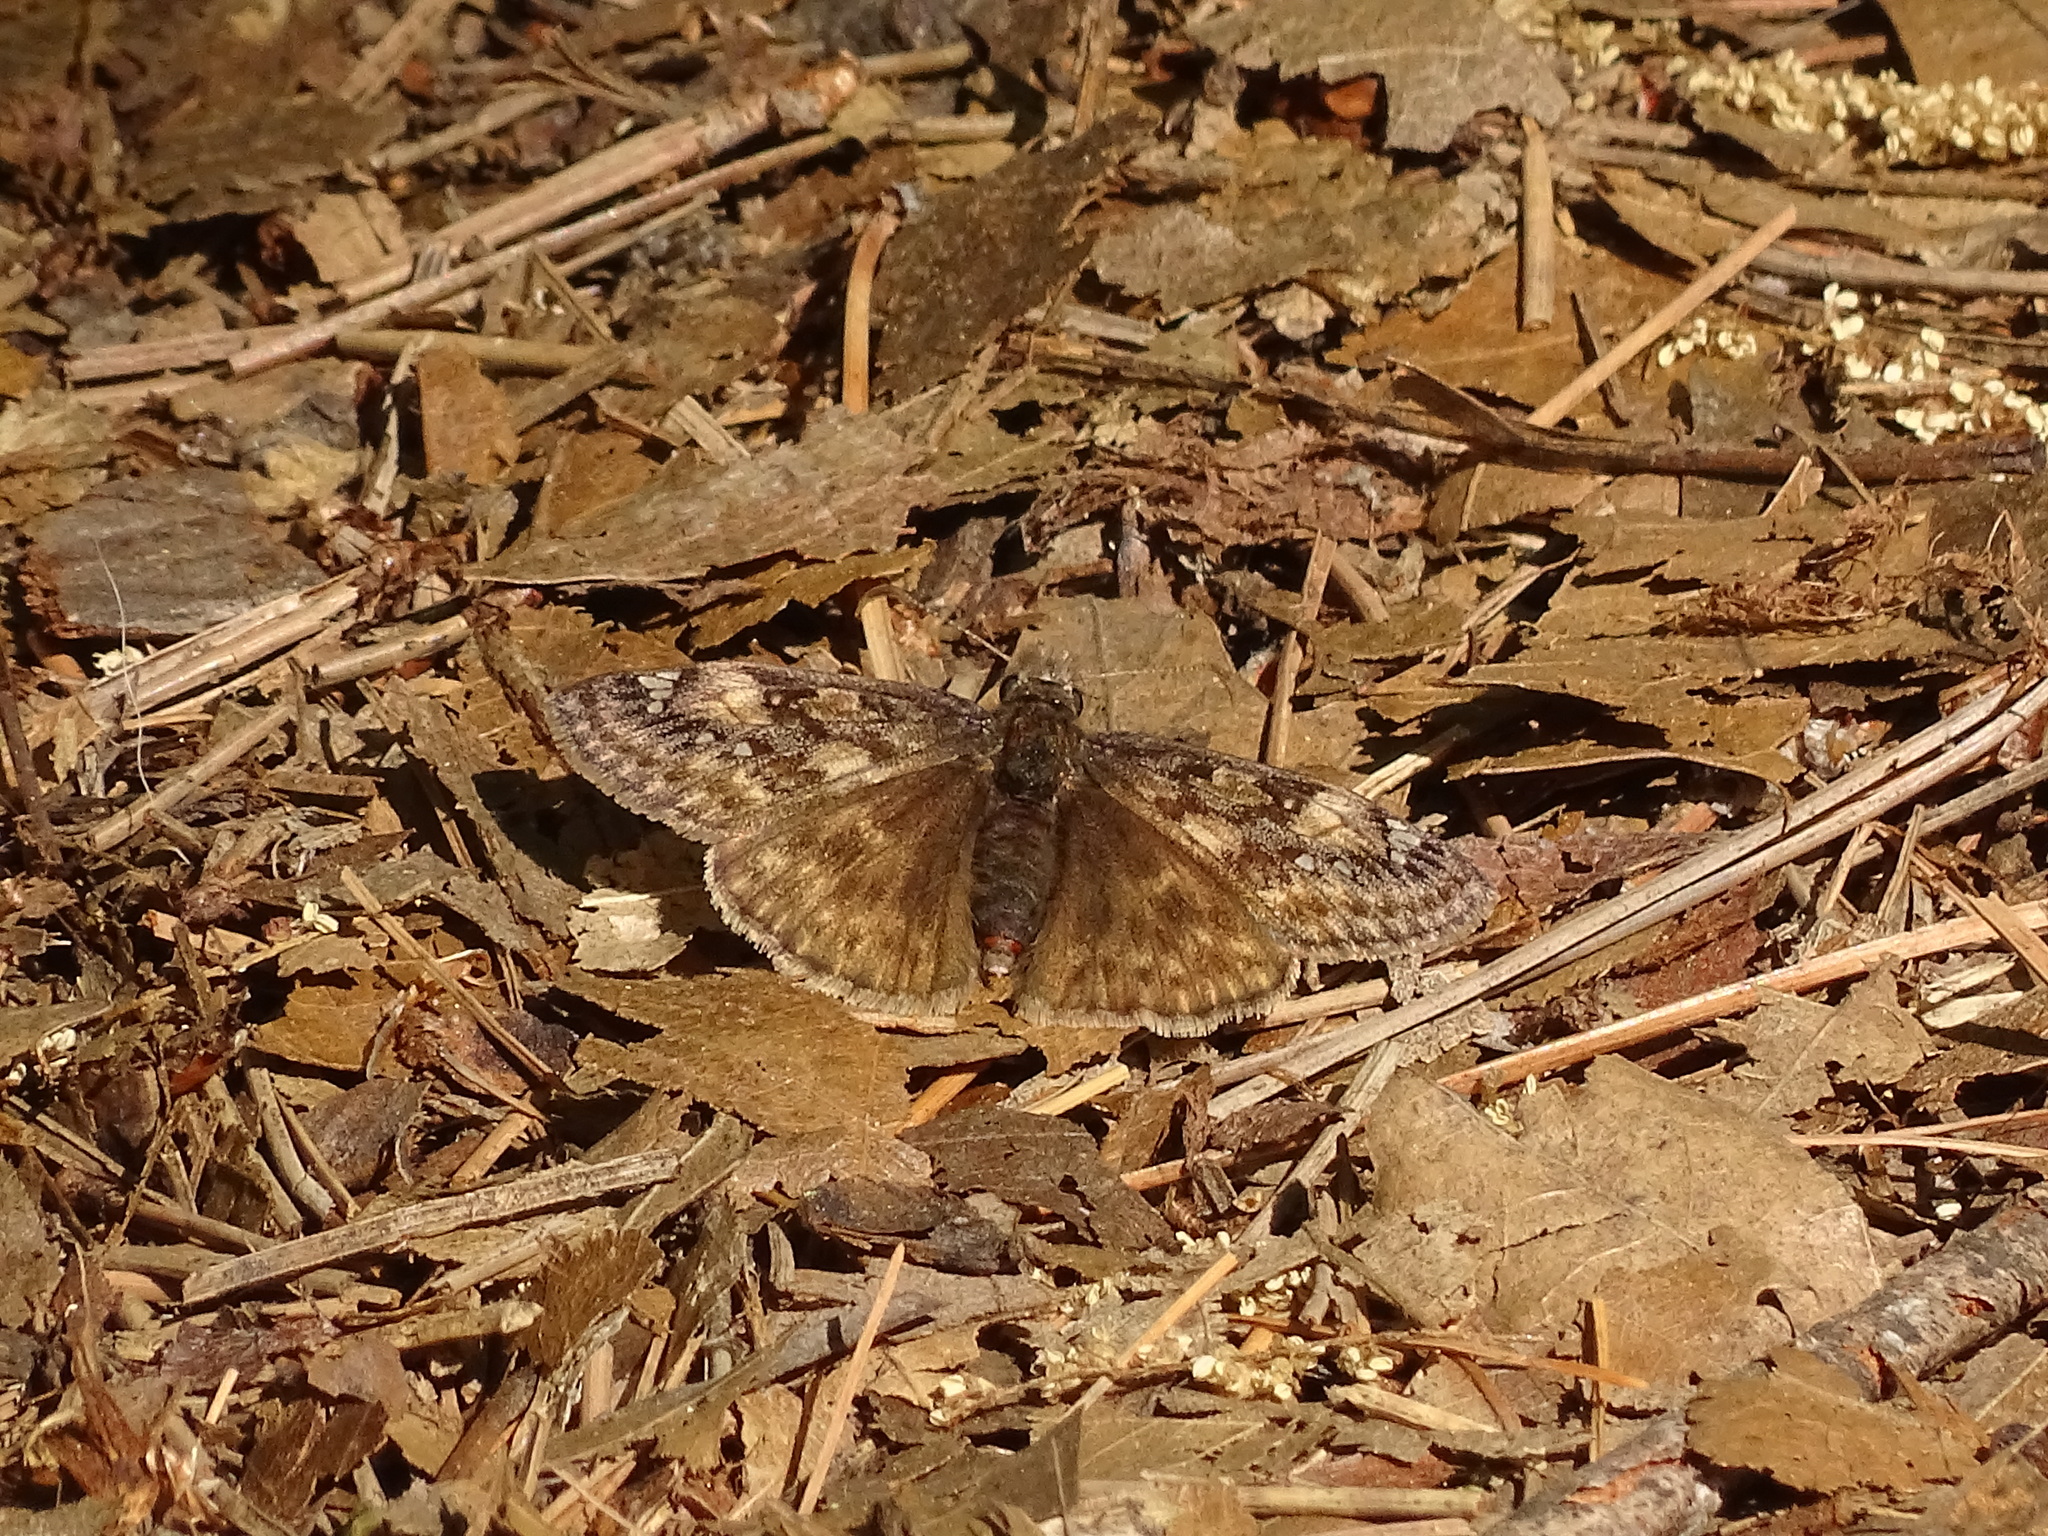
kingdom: Animalia
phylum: Arthropoda
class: Insecta
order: Lepidoptera
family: Hesperiidae
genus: Erynnis
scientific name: Erynnis juvenalis
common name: Juvenal's duskywing
